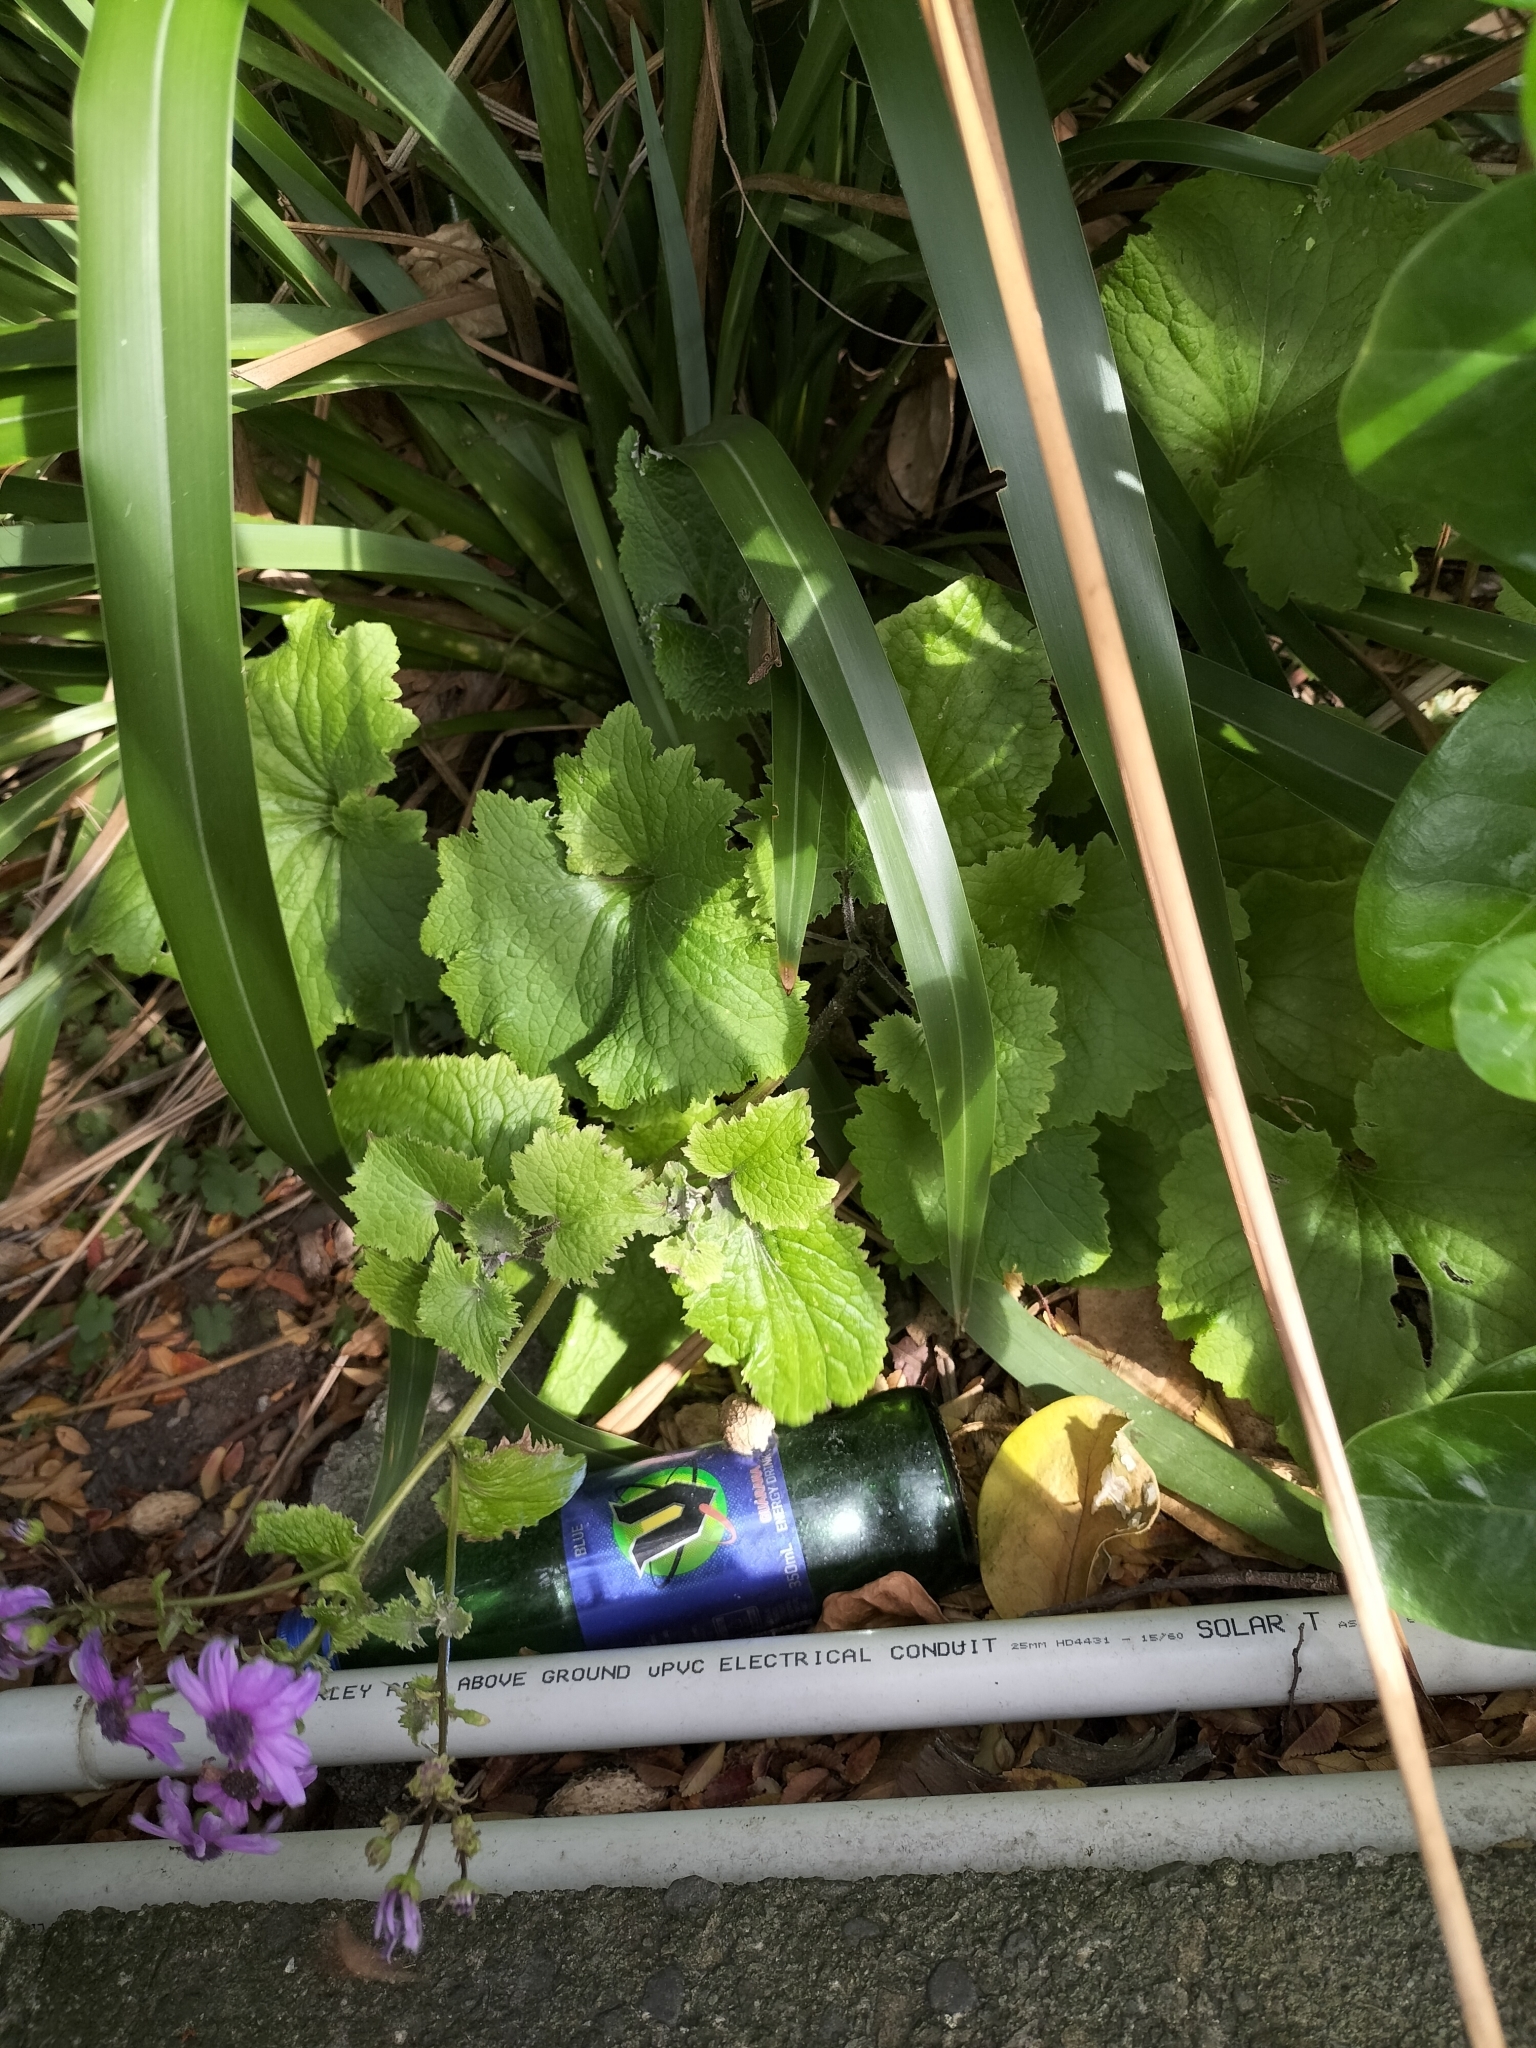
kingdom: Plantae
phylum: Tracheophyta
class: Magnoliopsida
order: Asterales
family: Asteraceae
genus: Pericallis
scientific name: Pericallis hybrida
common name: Cineraria
